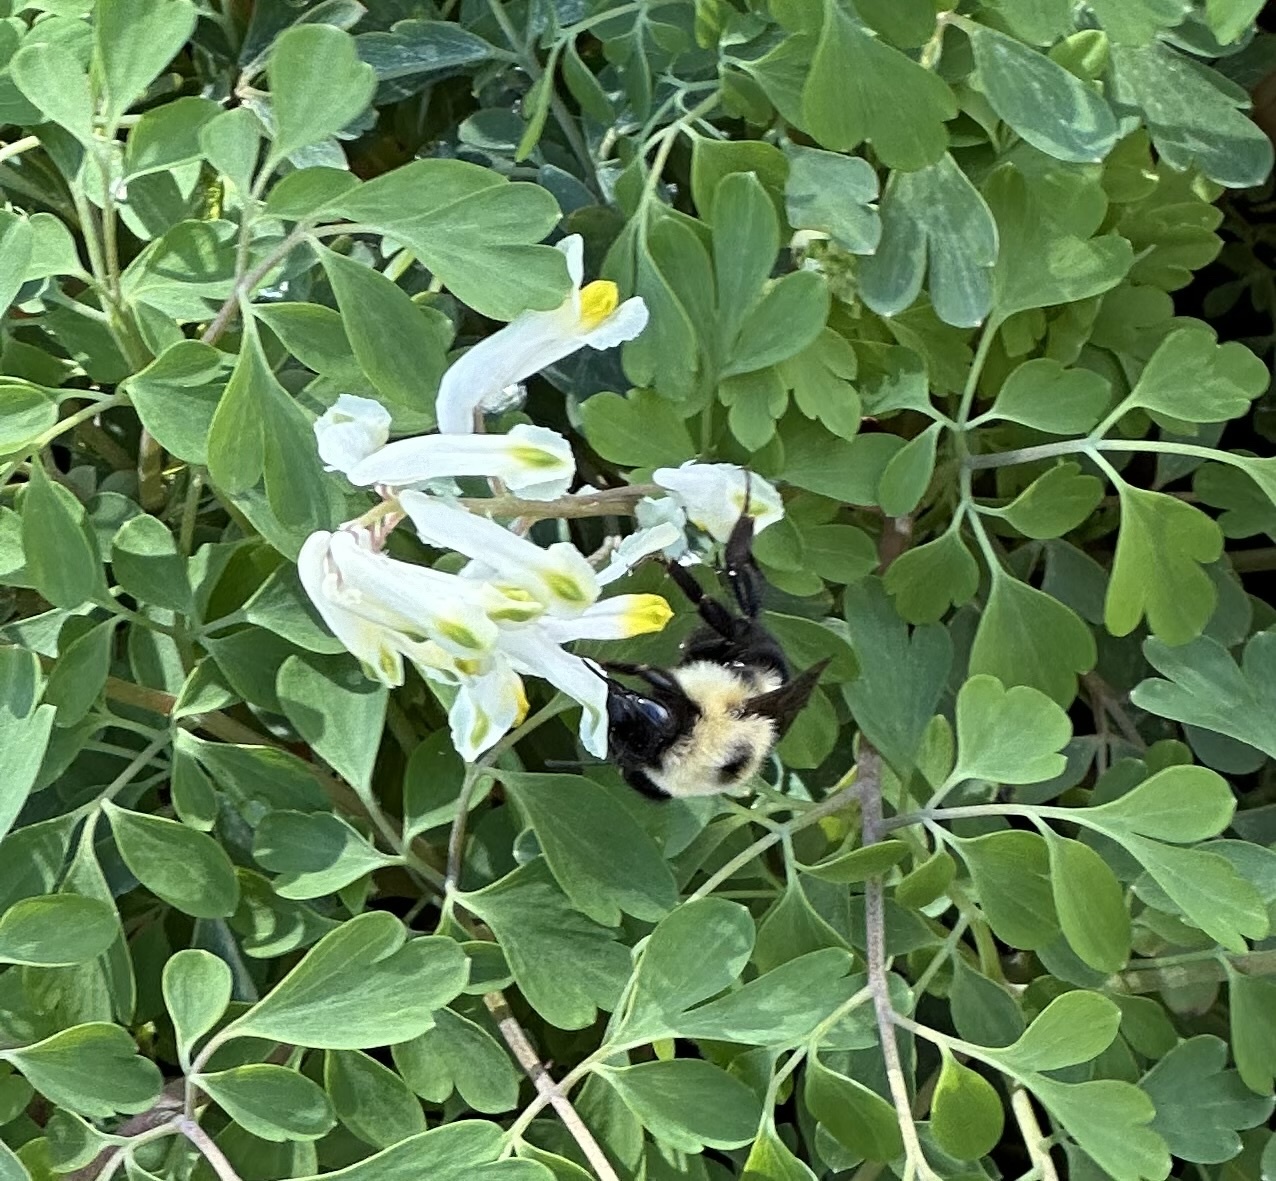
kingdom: Animalia
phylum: Arthropoda
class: Insecta
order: Hymenoptera
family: Apidae
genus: Bombus
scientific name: Bombus bimaculatus
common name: Two-spotted bumble bee
